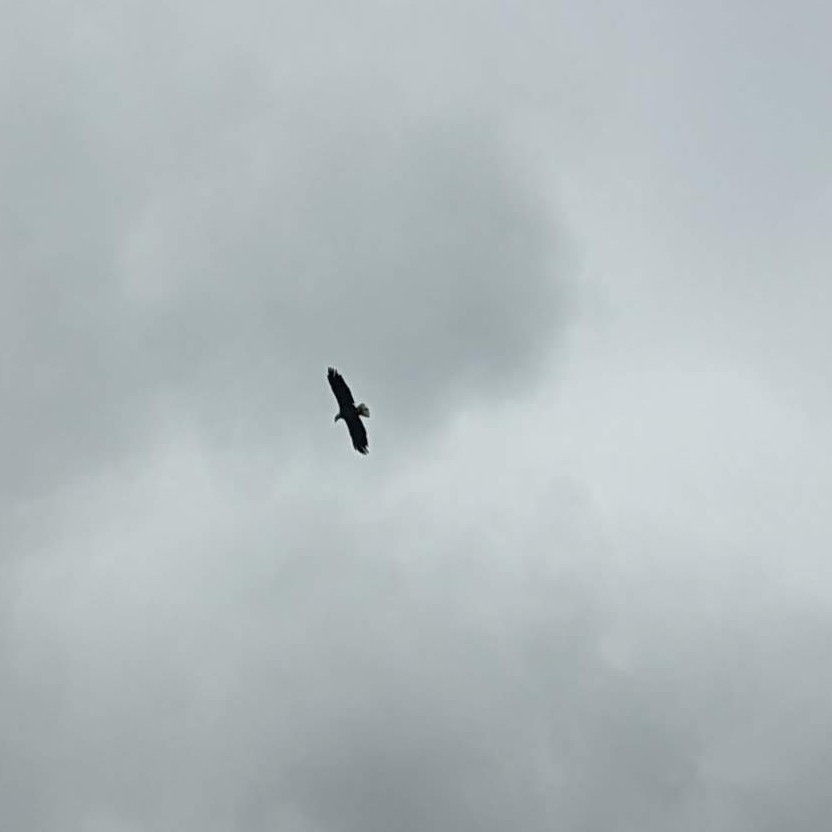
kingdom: Animalia
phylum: Chordata
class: Aves
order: Accipitriformes
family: Accipitridae
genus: Haliaeetus
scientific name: Haliaeetus leucocephalus
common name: Bald eagle
